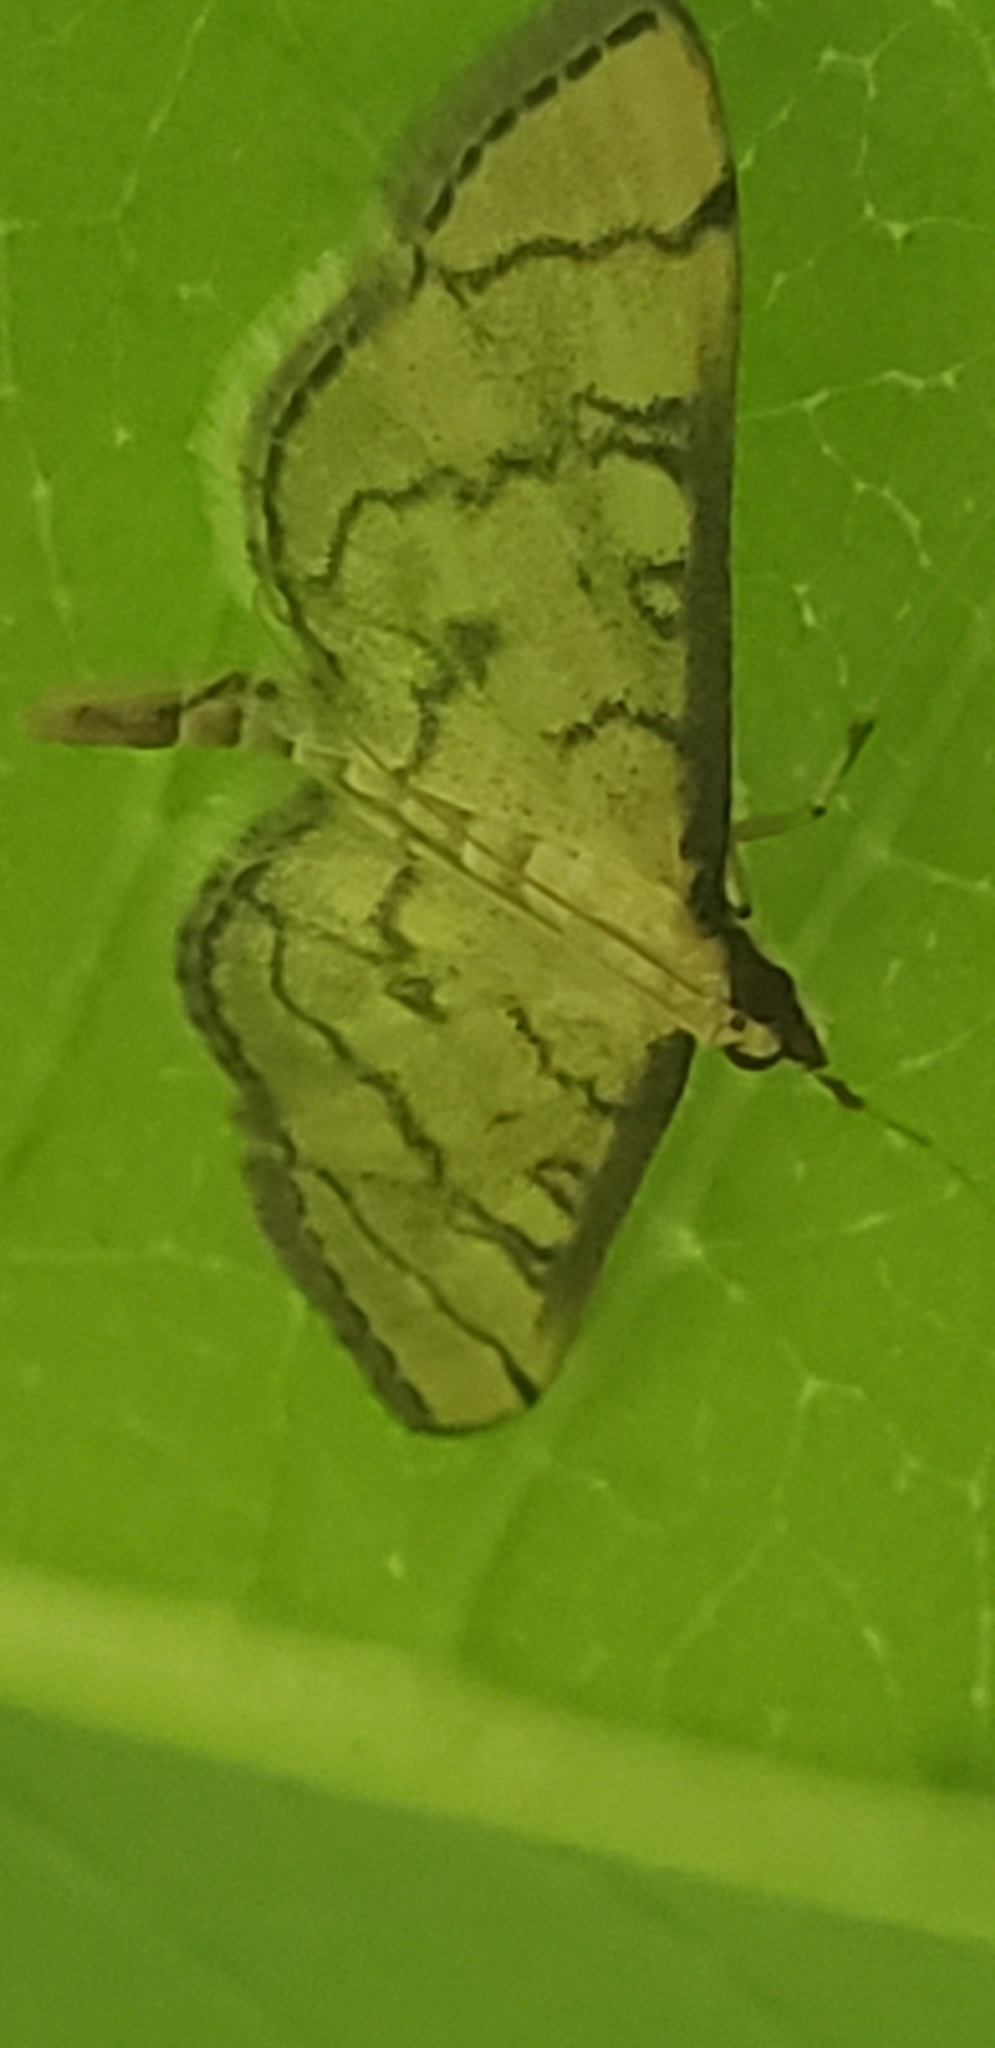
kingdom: Animalia
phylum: Arthropoda
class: Insecta
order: Lepidoptera
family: Crambidae
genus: Lamprosema
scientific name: Lamprosema Blepharomastix ranalis
